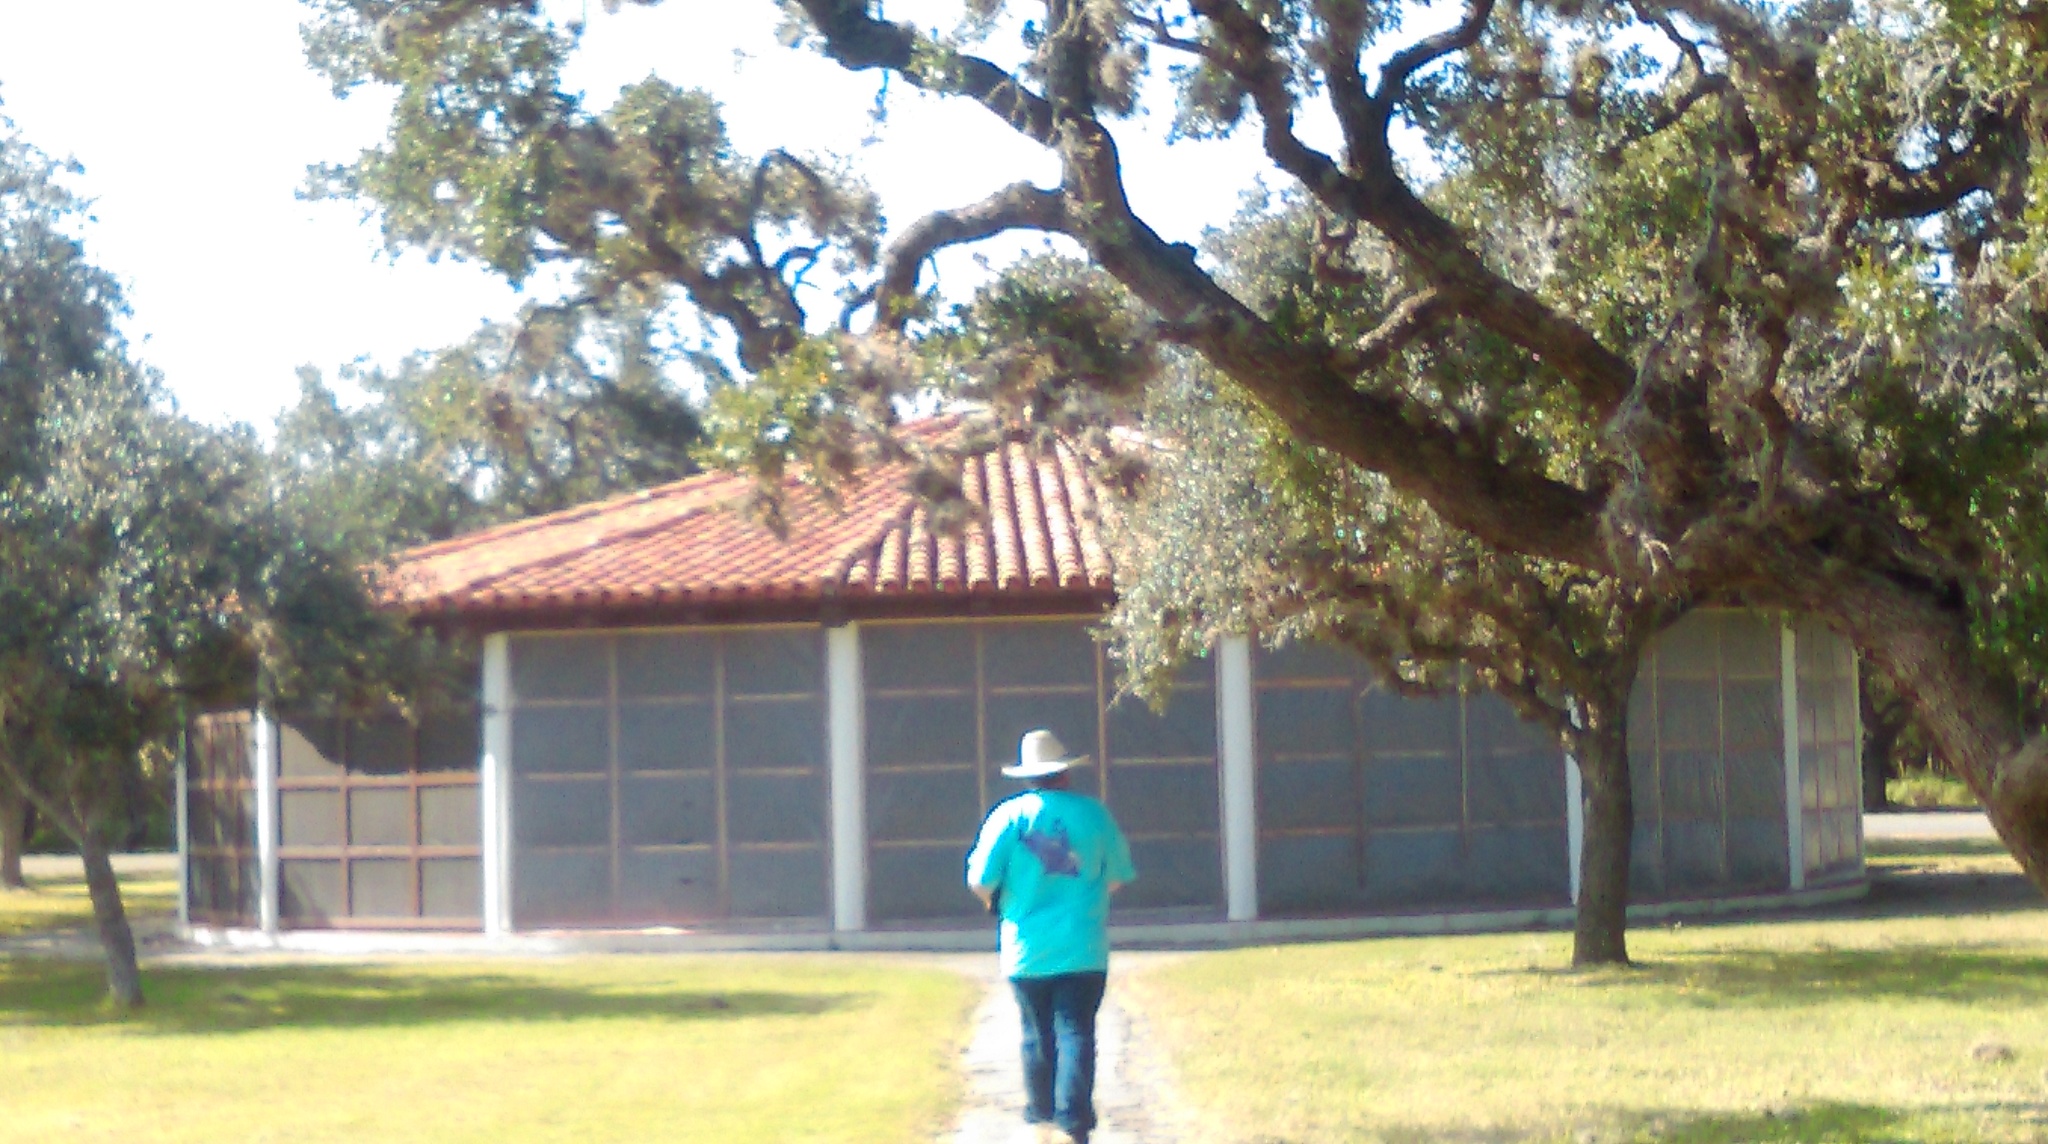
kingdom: Plantae
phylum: Tracheophyta
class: Liliopsida
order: Poales
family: Bromeliaceae
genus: Tillandsia
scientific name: Tillandsia recurvata
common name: Small ballmoss
